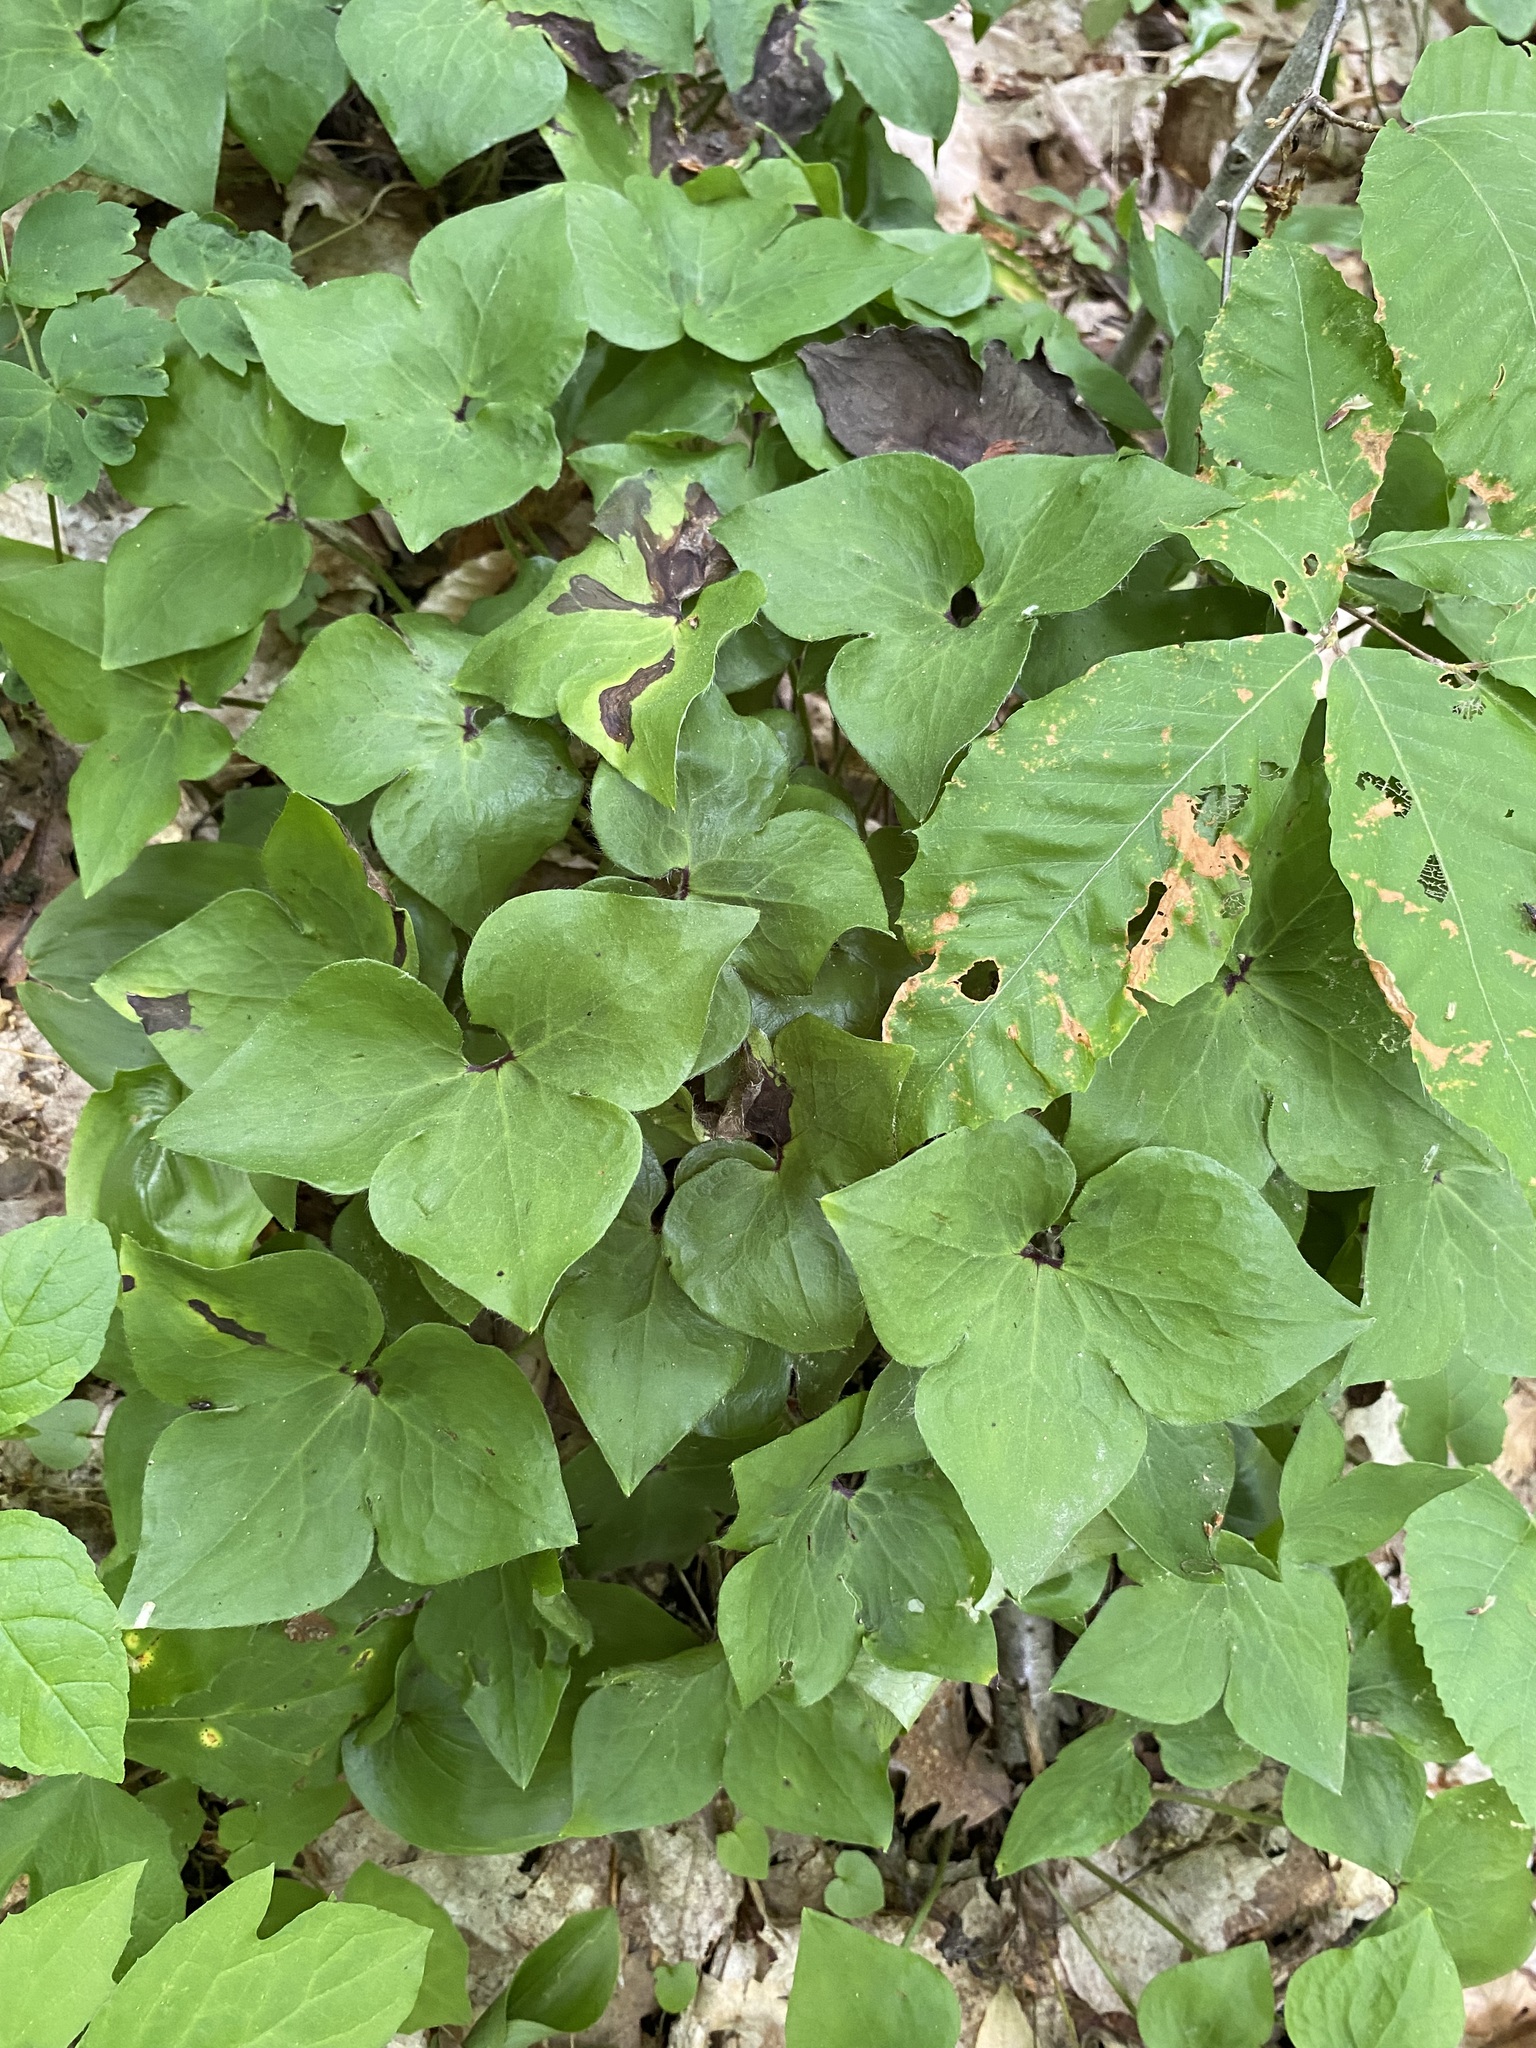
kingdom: Plantae
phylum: Tracheophyta
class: Magnoliopsida
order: Ranunculales
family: Ranunculaceae
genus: Hepatica
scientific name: Hepatica acutiloba
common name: Sharp-lobed hepatica
